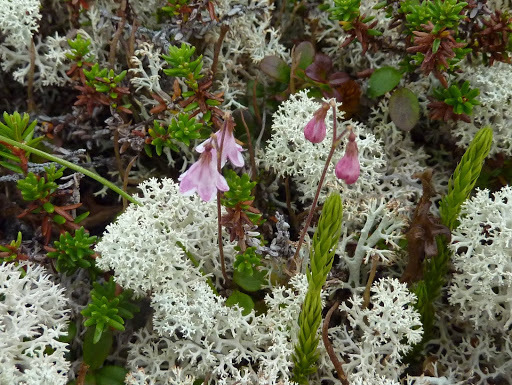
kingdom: Plantae
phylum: Tracheophyta
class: Magnoliopsida
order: Dipsacales
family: Caprifoliaceae
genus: Linnaea
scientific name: Linnaea borealis
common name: Twinflower
